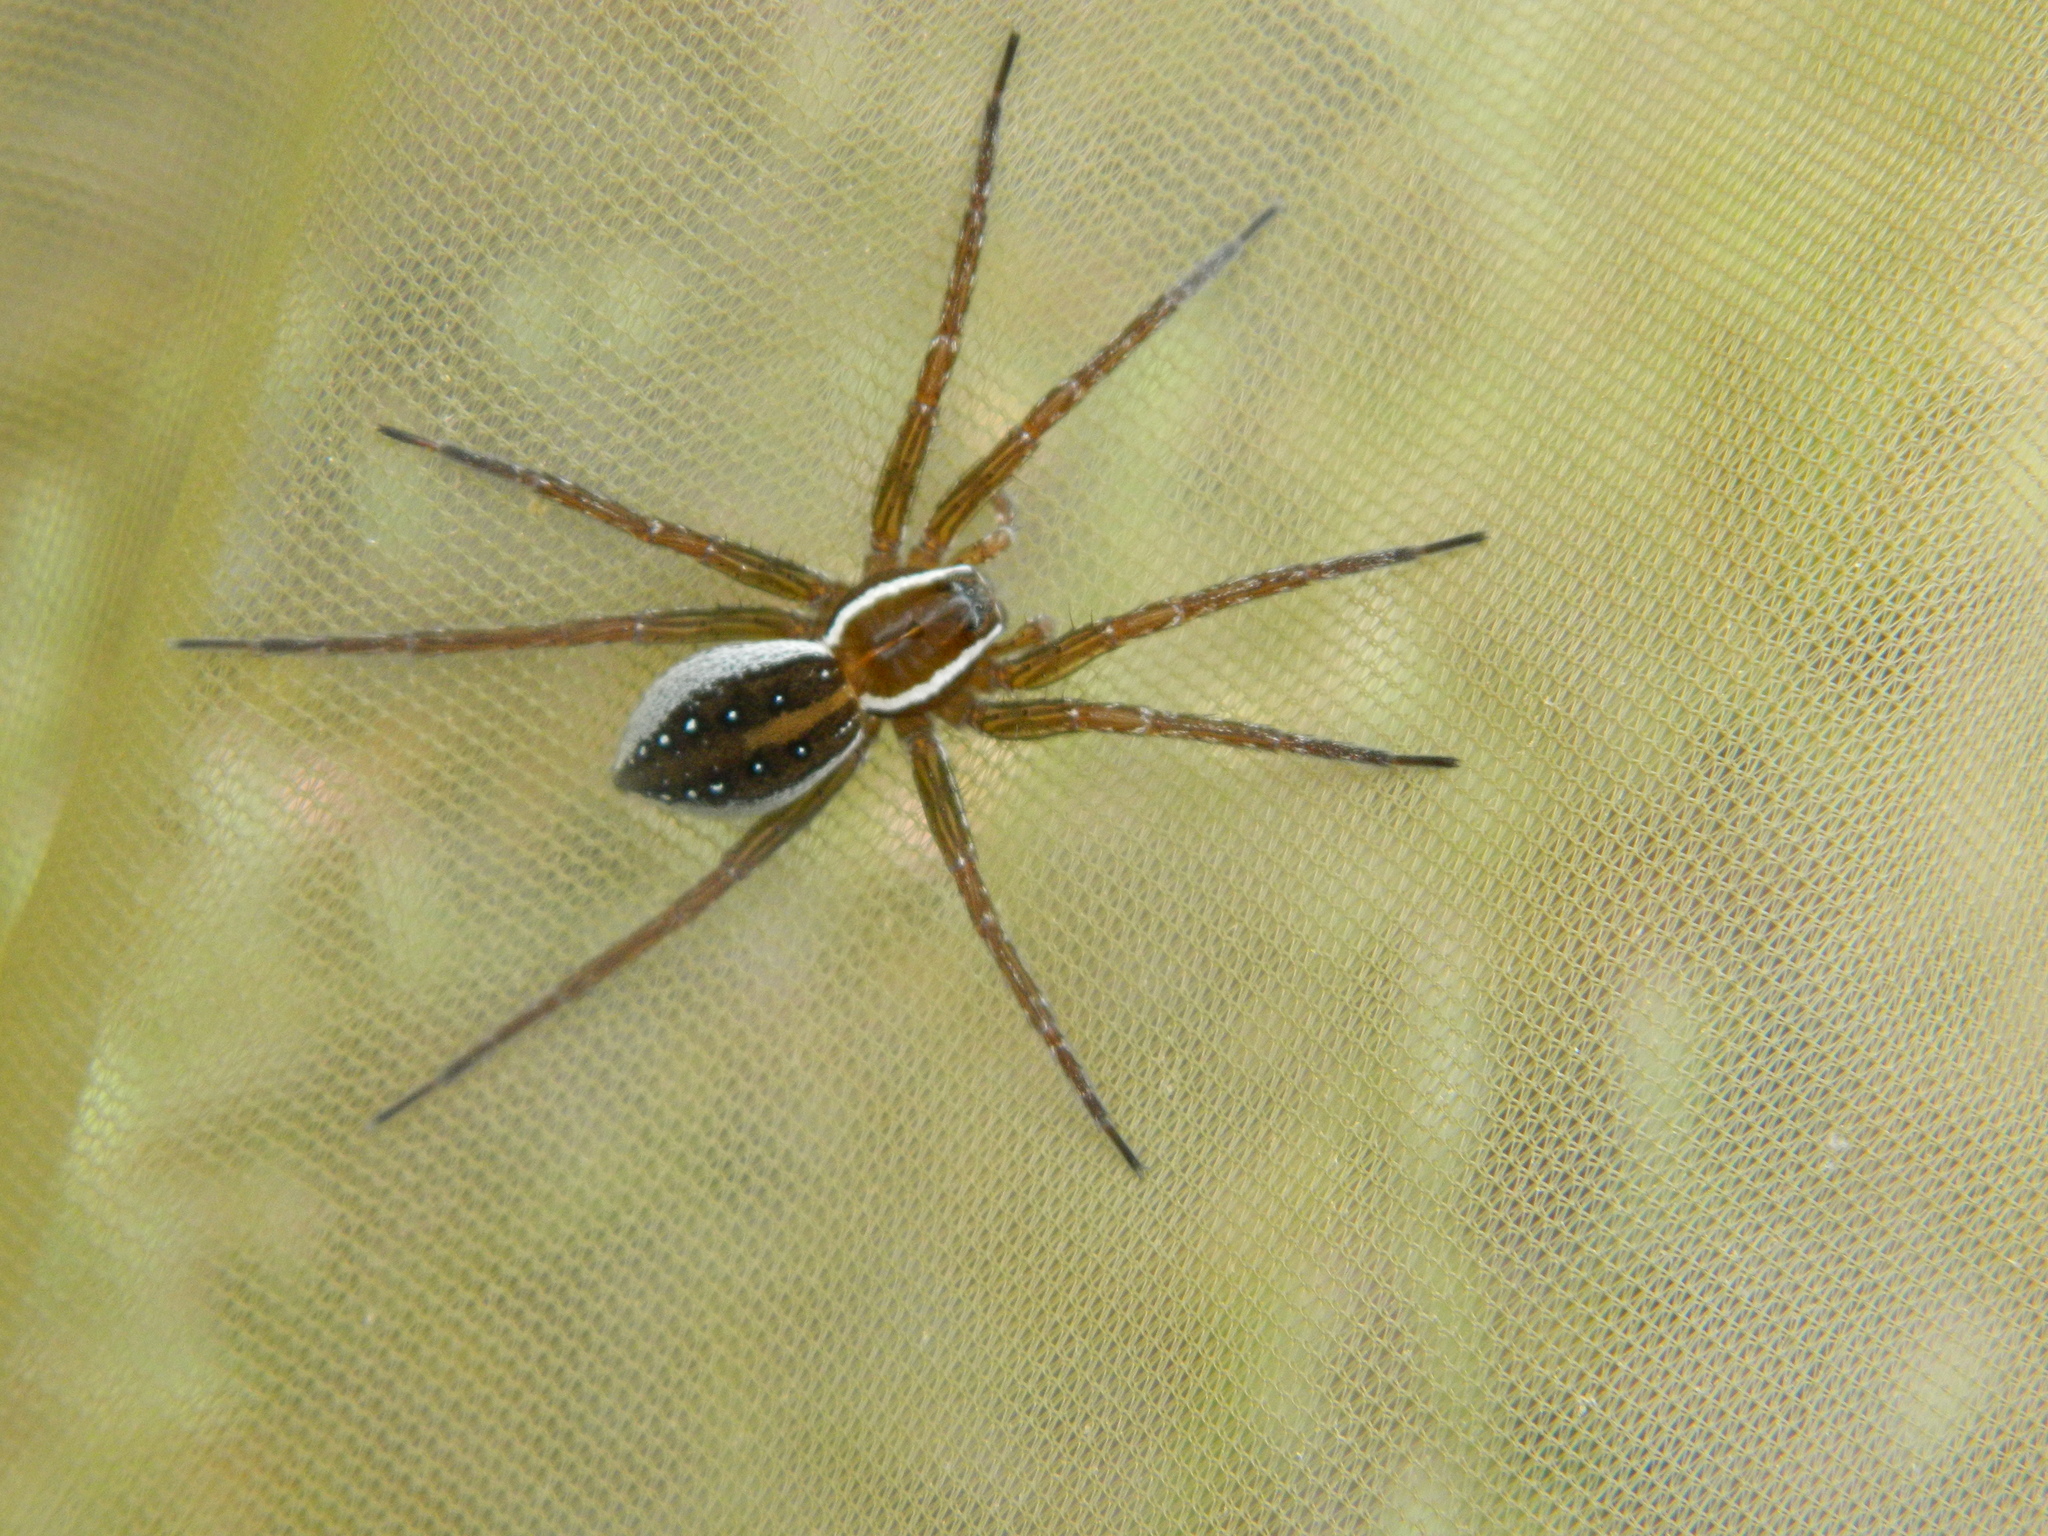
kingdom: Animalia
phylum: Arthropoda
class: Arachnida
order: Araneae
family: Pisauridae
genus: Dolomedes
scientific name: Dolomedes triton
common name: Six-spotted fishing spider
